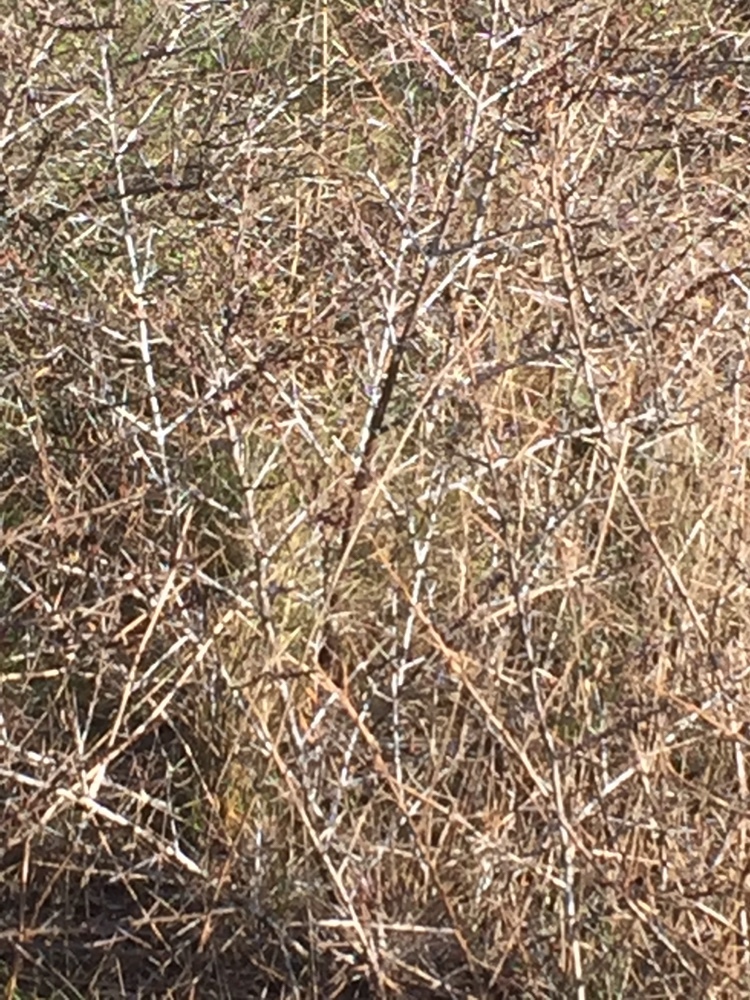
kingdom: Plantae
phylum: Tracheophyta
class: Magnoliopsida
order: Rosales
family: Elaeagnaceae
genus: Hippophae
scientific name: Hippophae rhamnoides
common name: Sea-buckthorn
